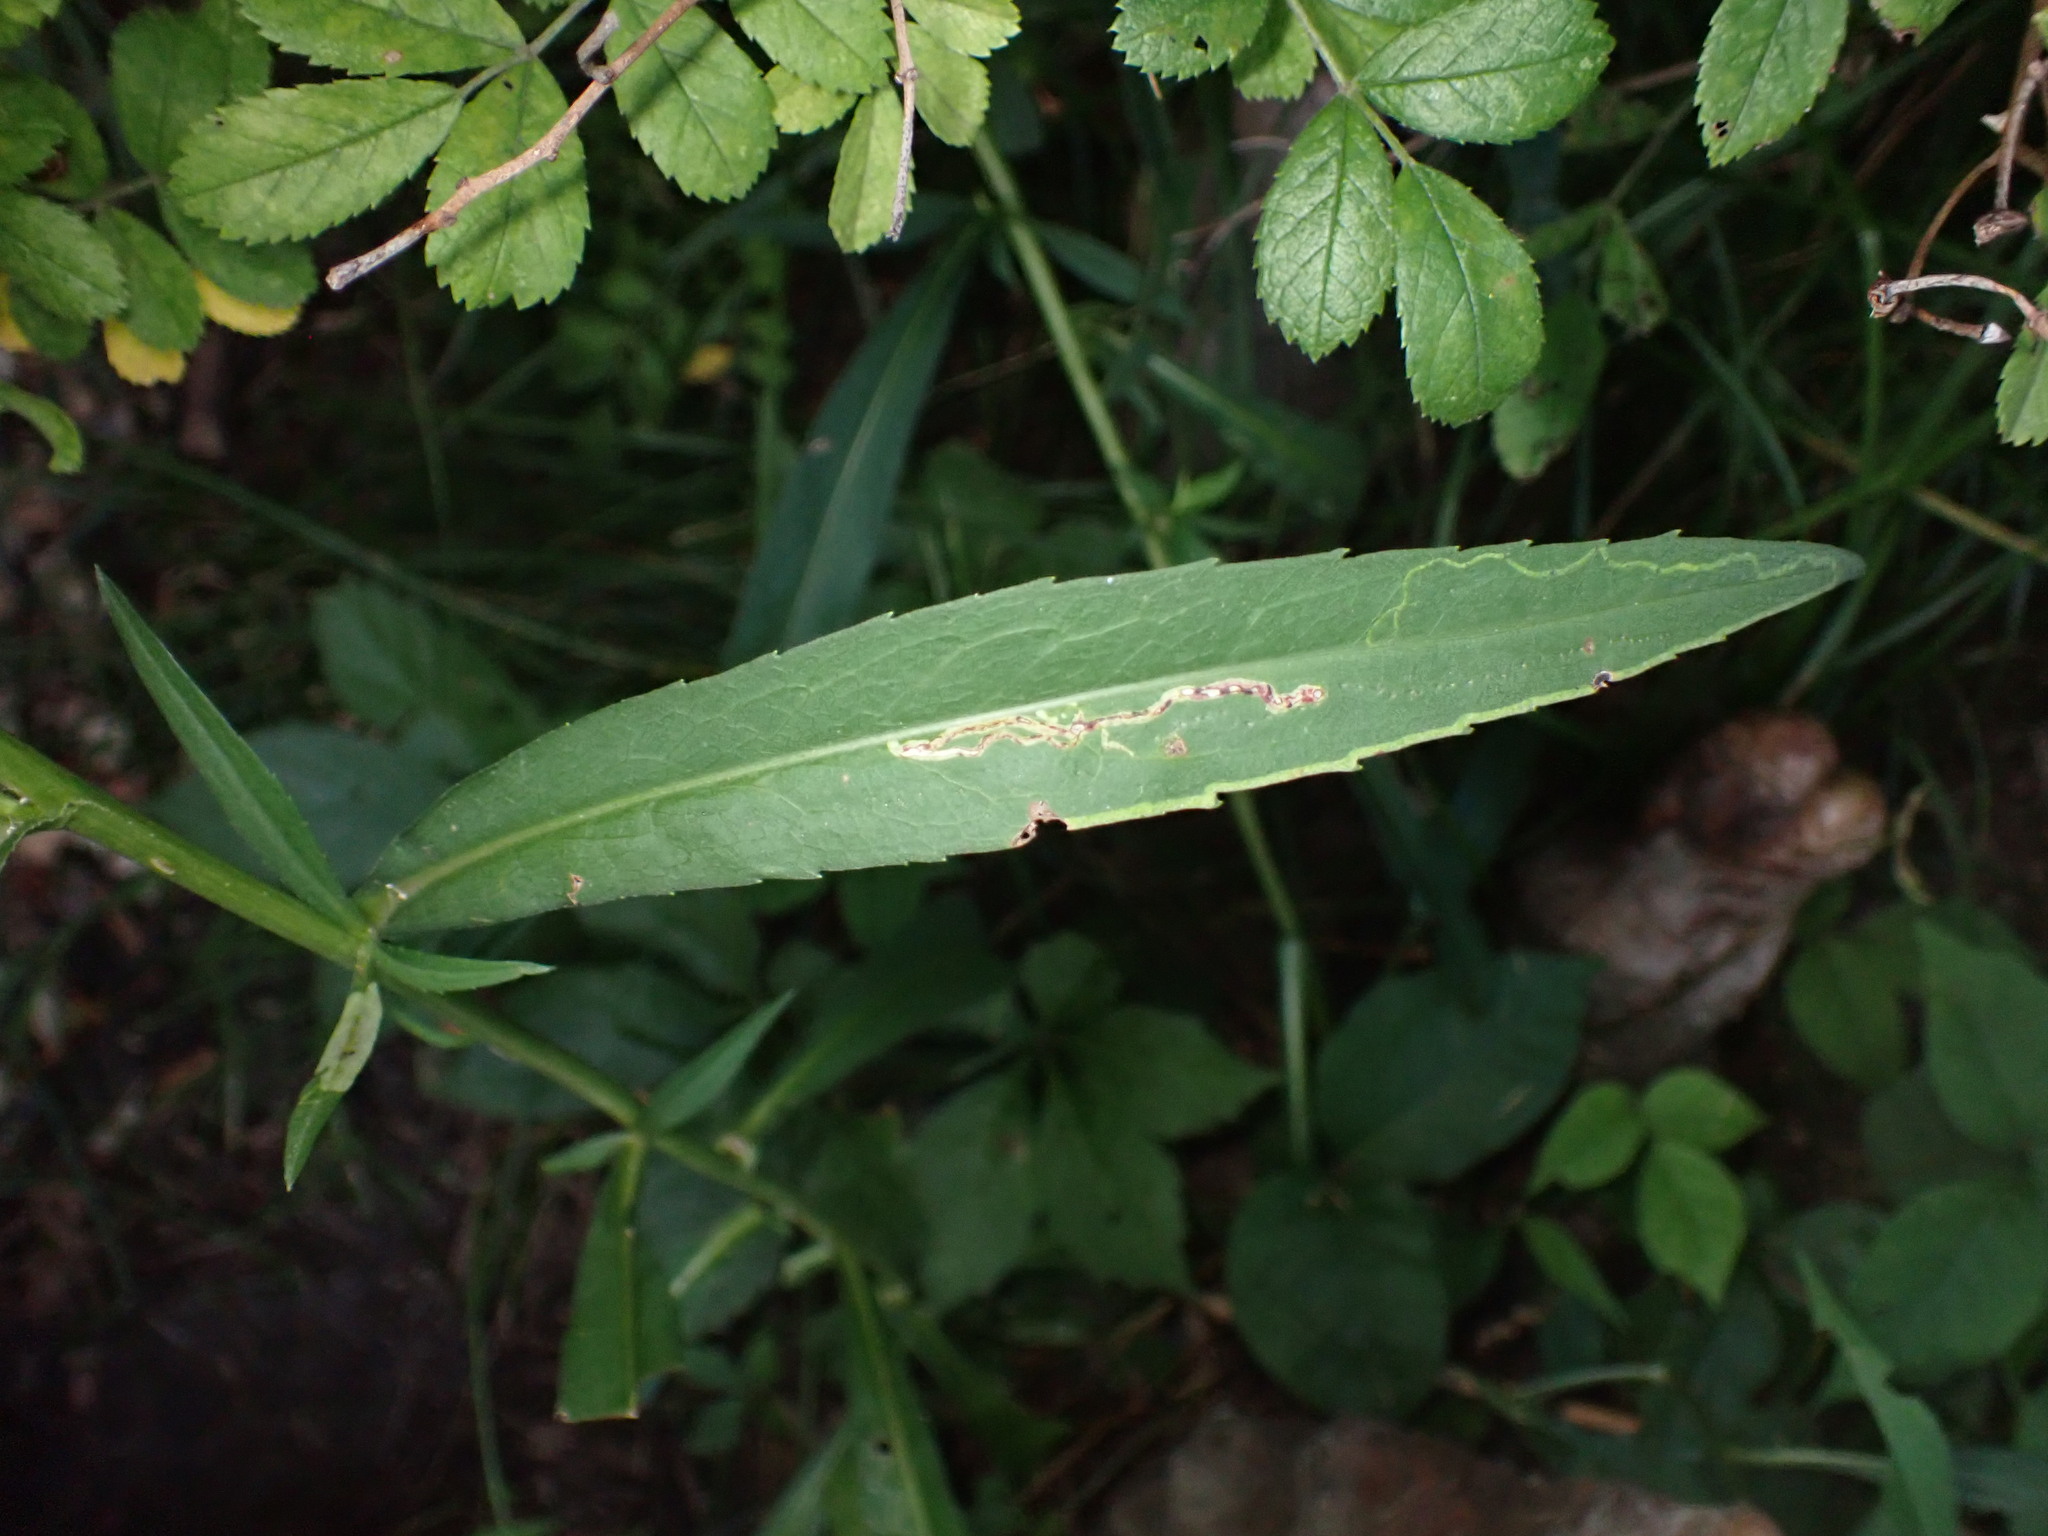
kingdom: Animalia
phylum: Arthropoda
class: Insecta
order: Diptera
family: Agromyzidae
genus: Ophiomyia
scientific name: Ophiomyia parda
